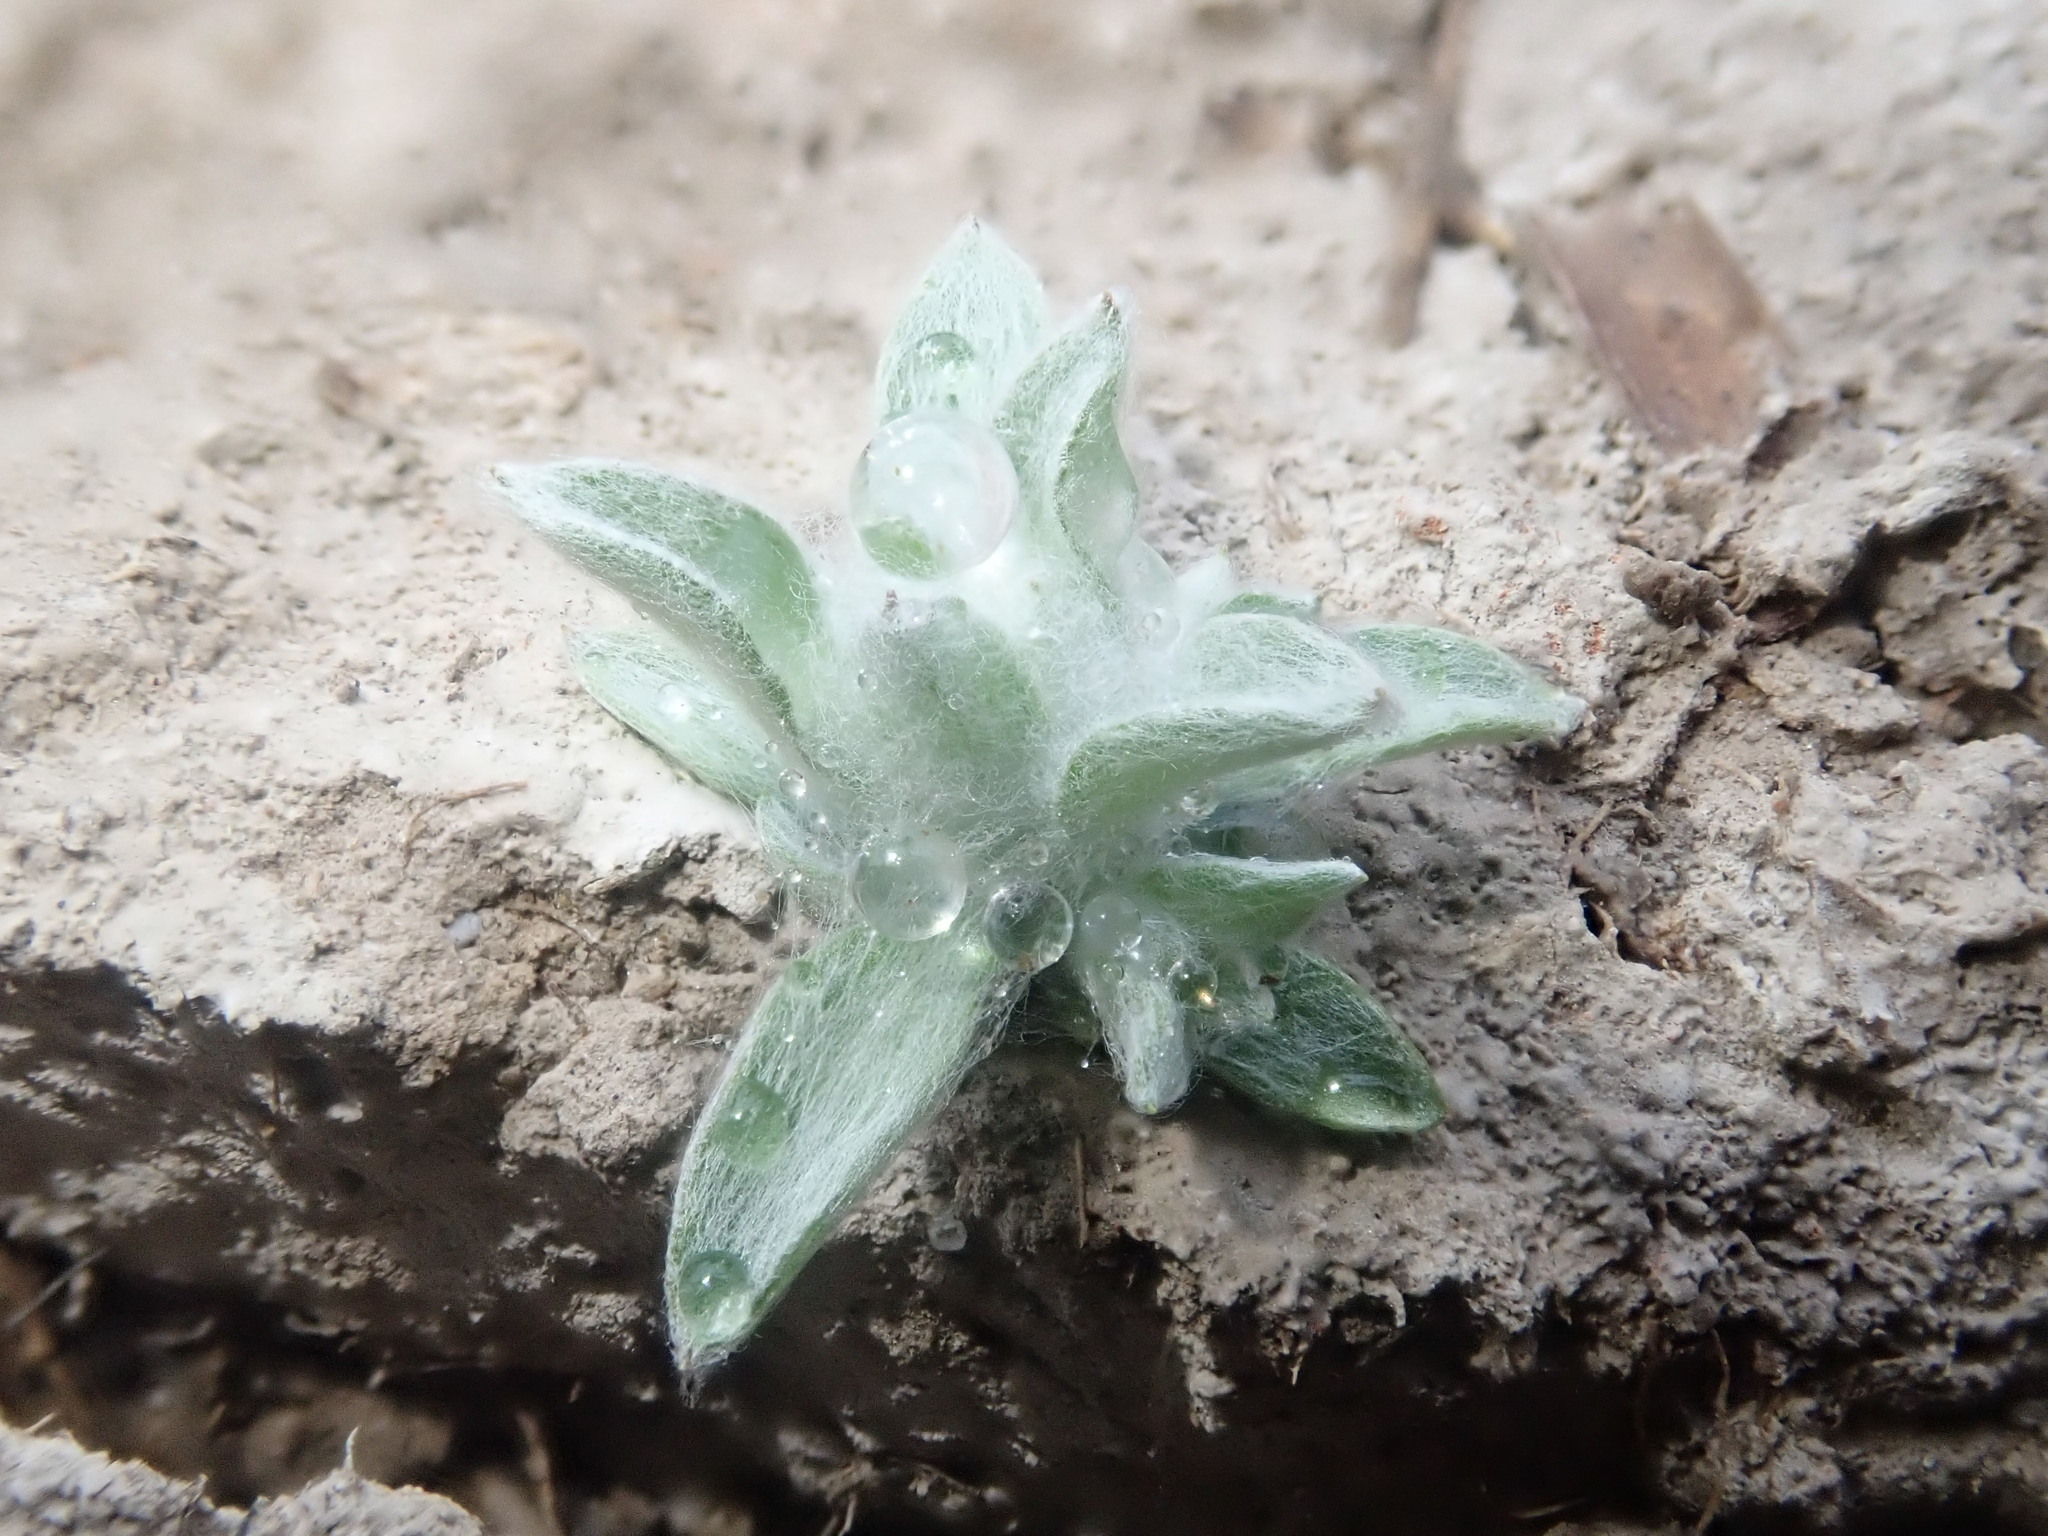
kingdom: Plantae
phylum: Tracheophyta
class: Magnoliopsida
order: Asterales
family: Asteraceae
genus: Gnaphalium
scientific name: Gnaphalium palustre
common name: Western marsh cudweed
